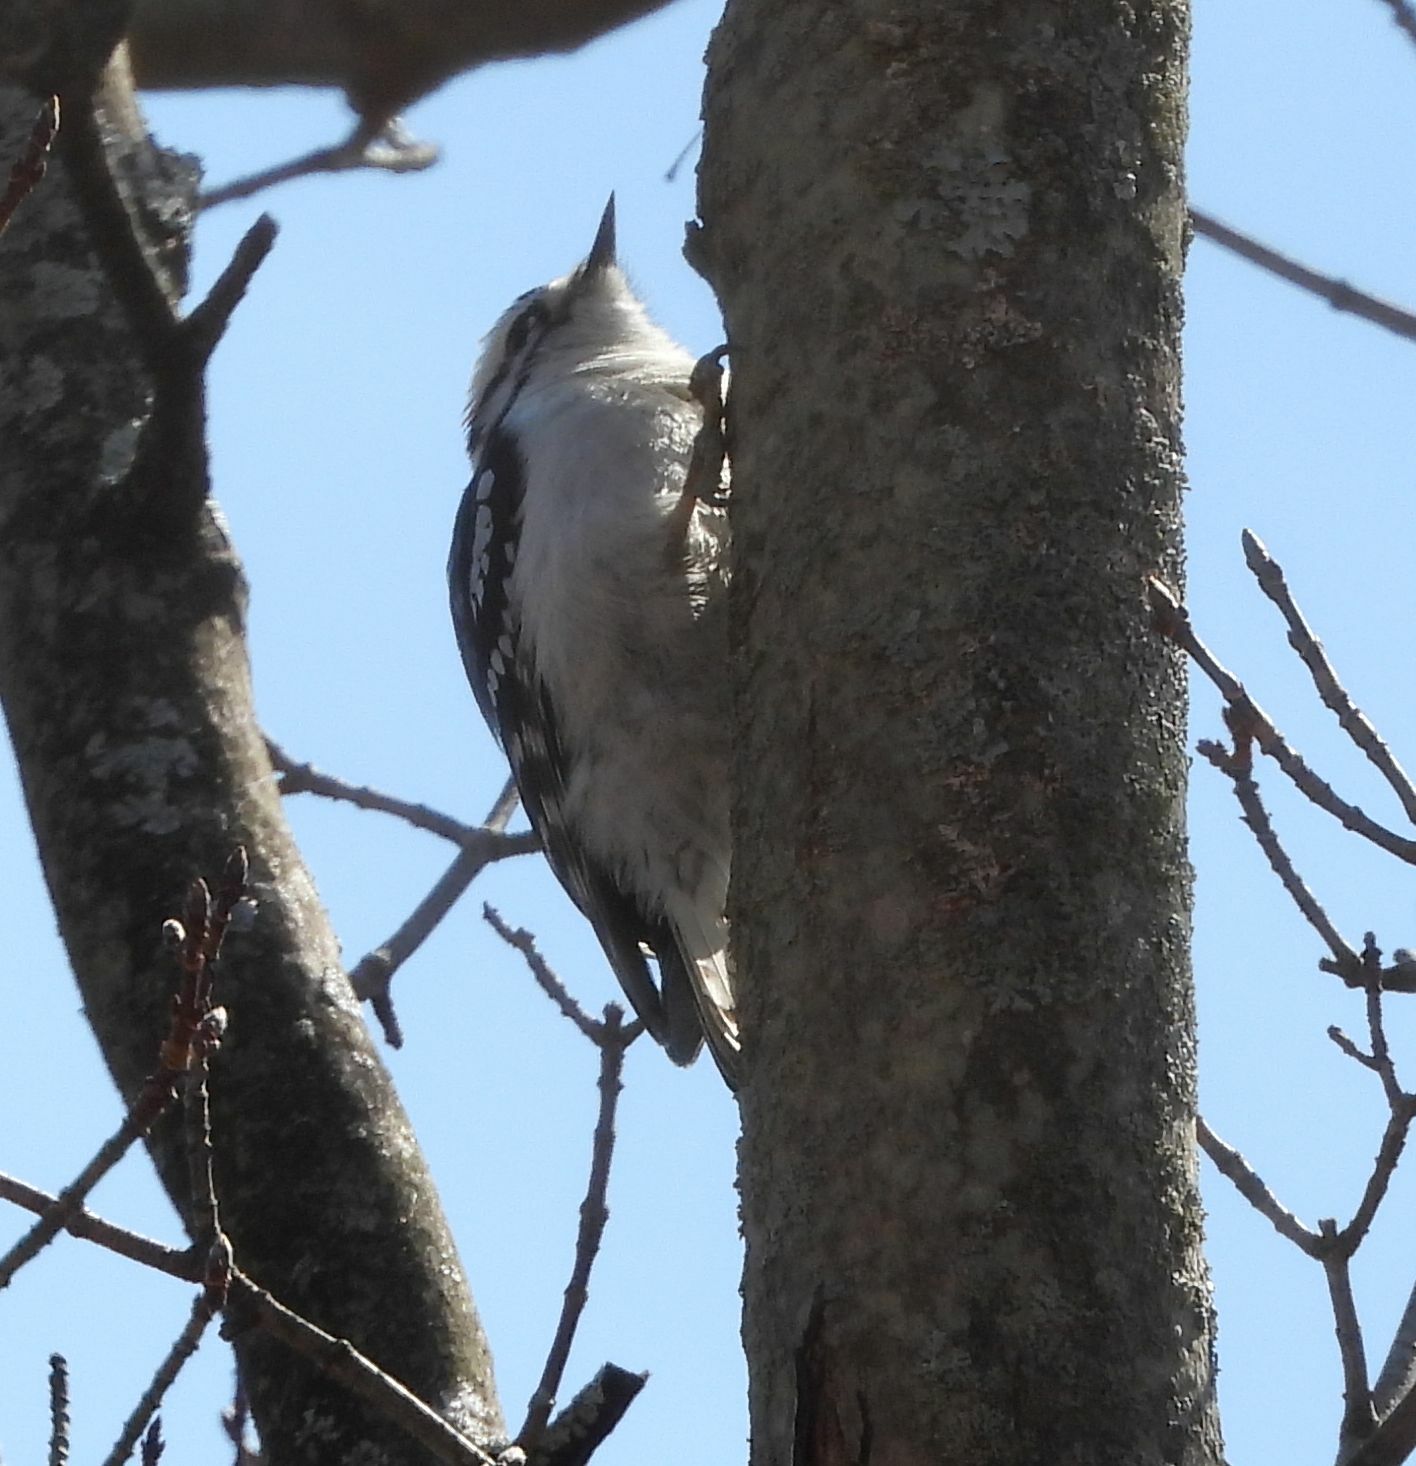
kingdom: Animalia
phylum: Chordata
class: Aves
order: Piciformes
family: Picidae
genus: Dryobates
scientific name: Dryobates pubescens
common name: Downy woodpecker
